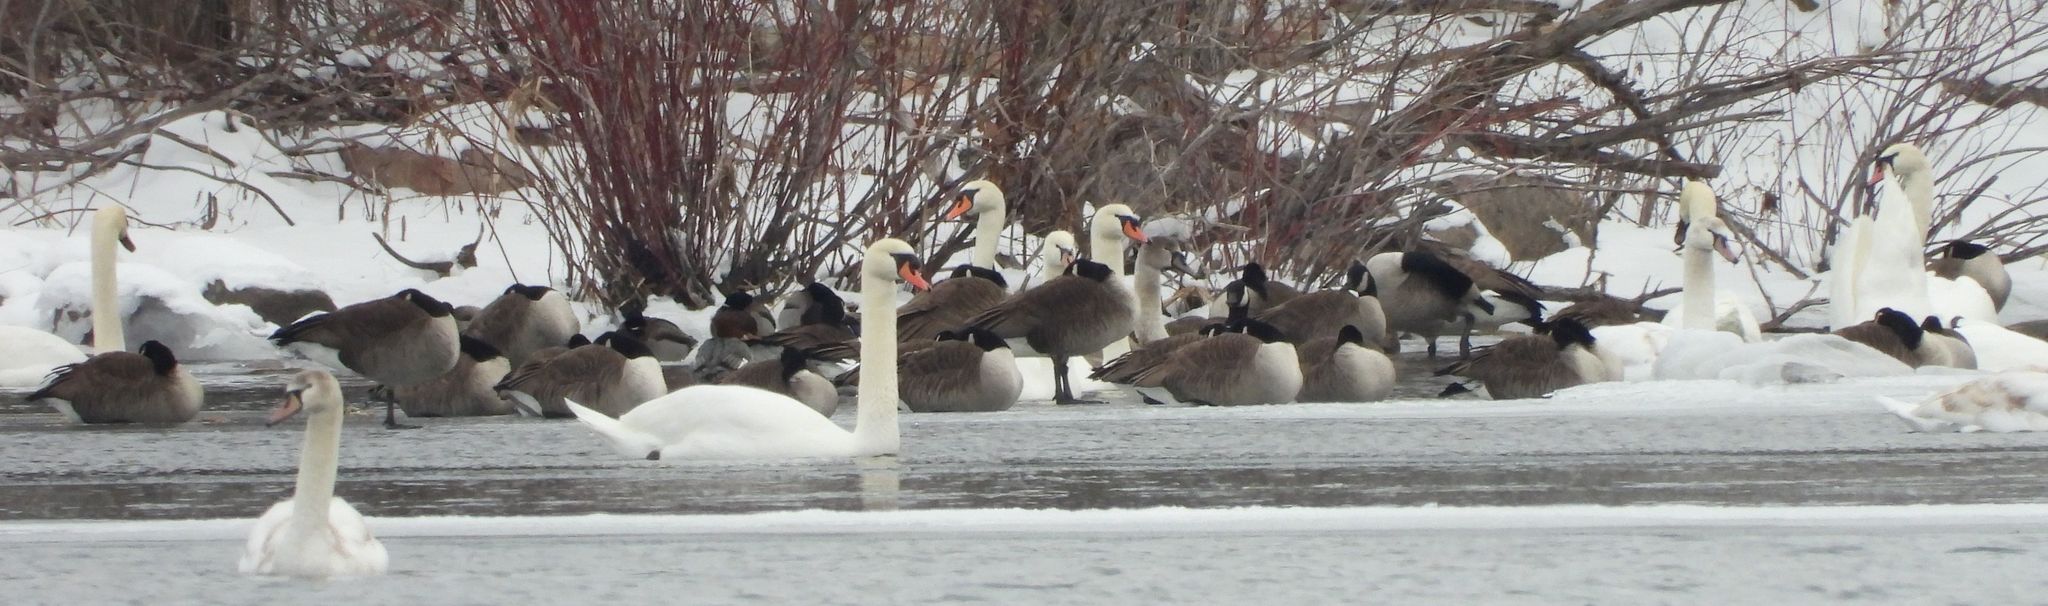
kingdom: Animalia
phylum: Chordata
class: Aves
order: Anseriformes
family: Anatidae
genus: Cygnus
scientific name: Cygnus olor
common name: Mute swan
